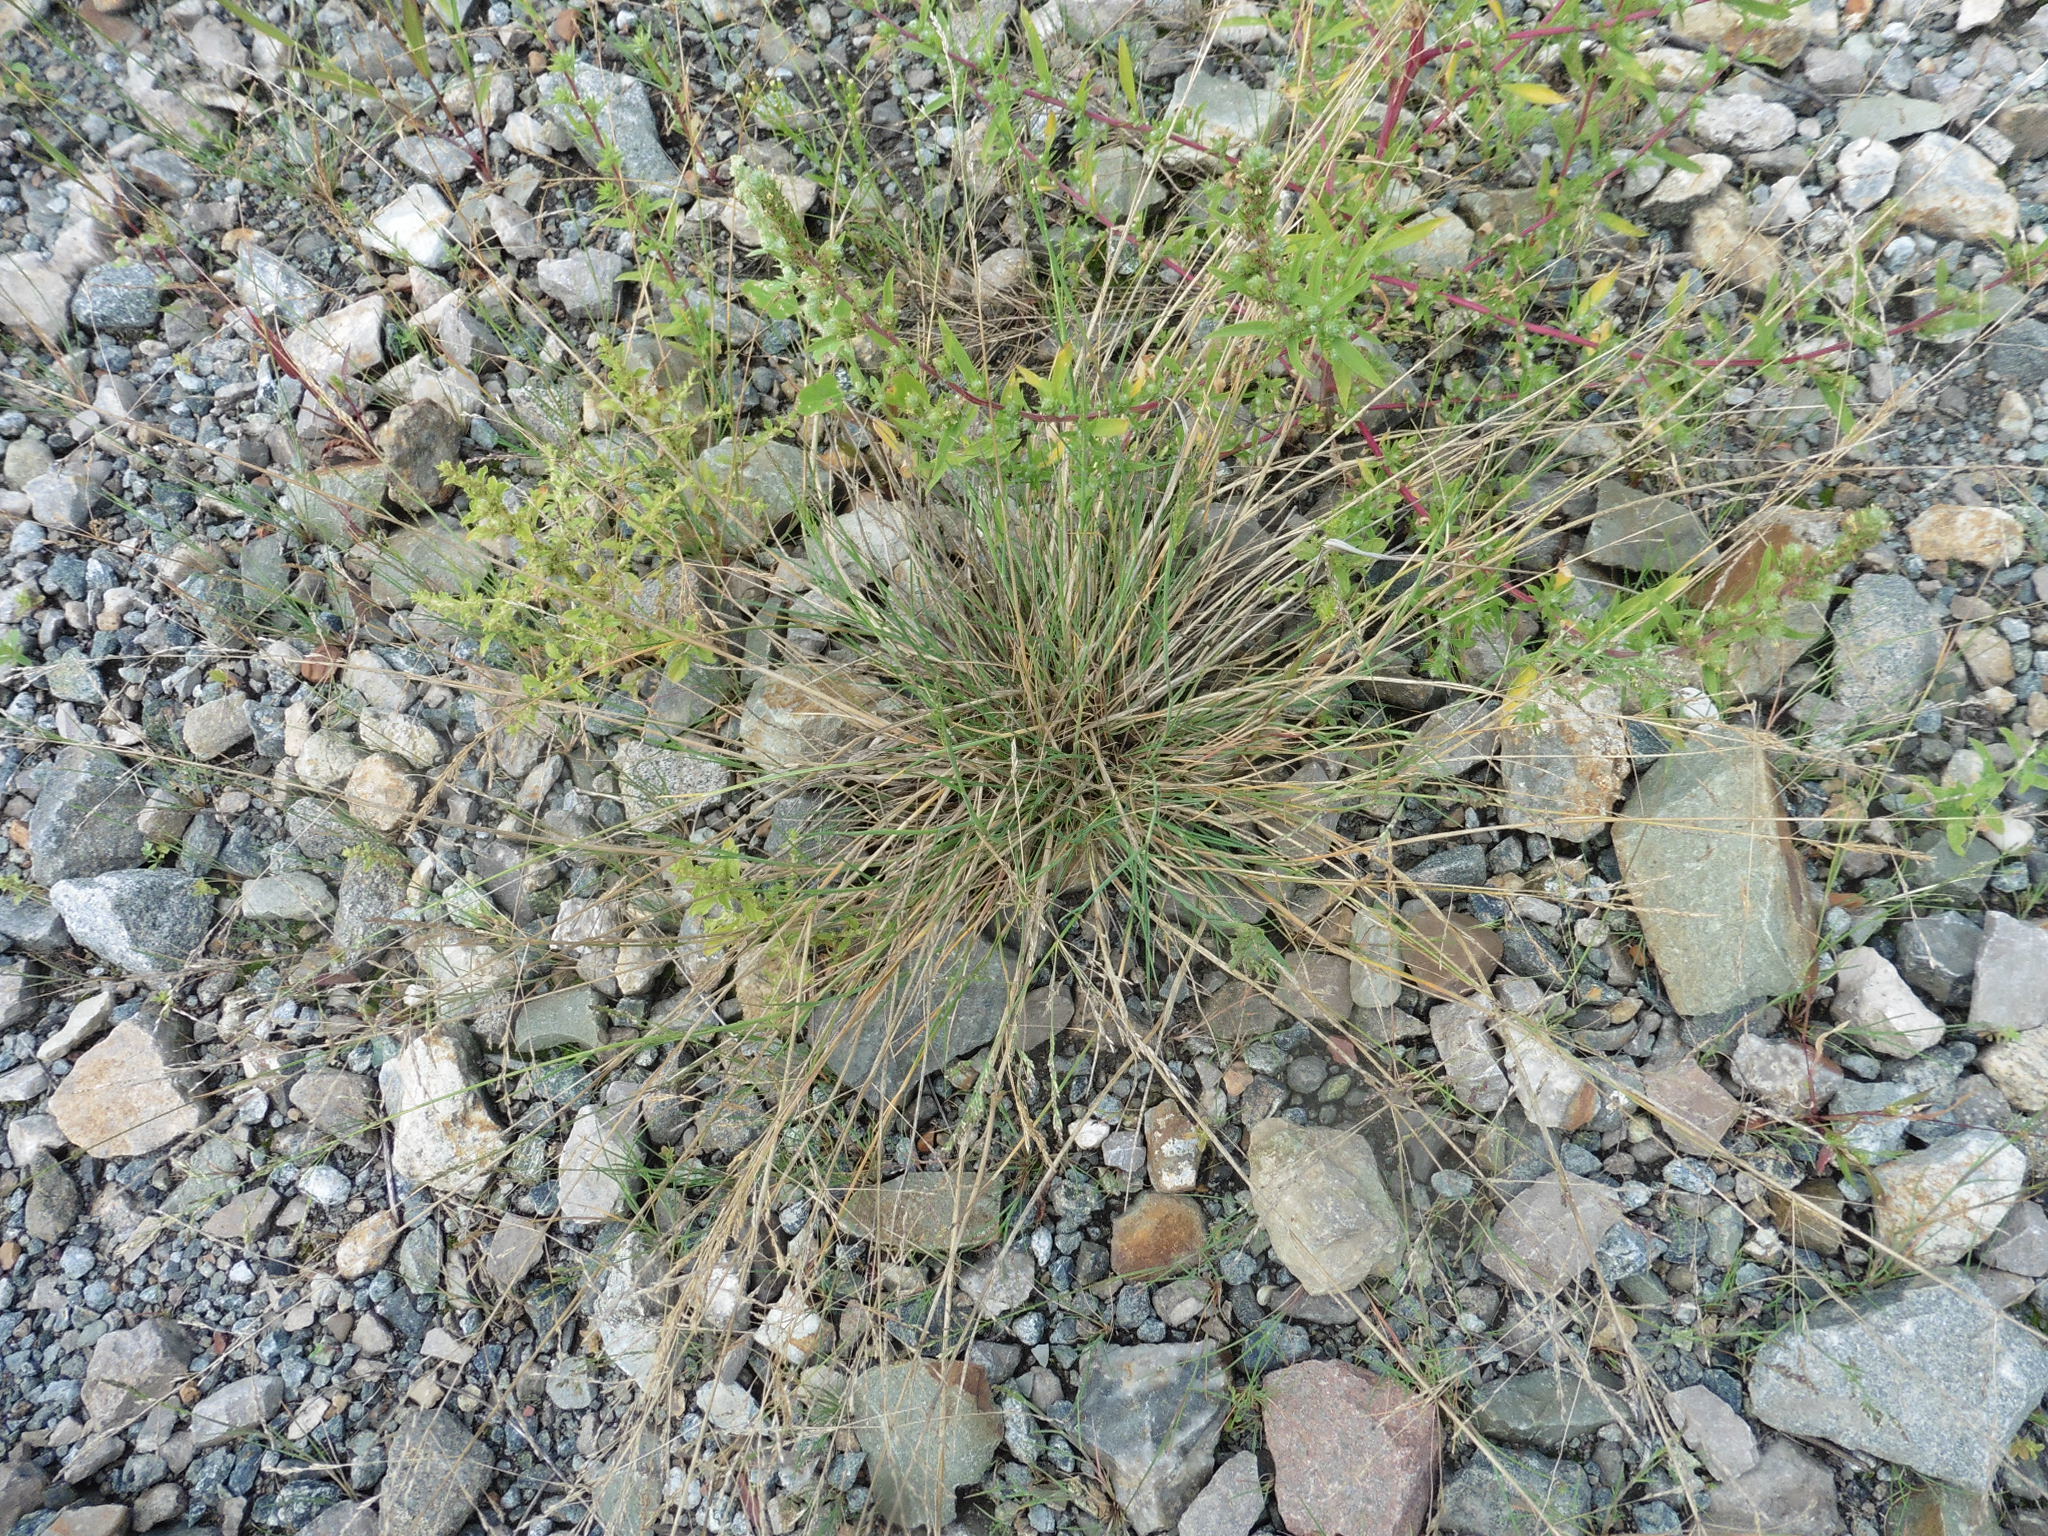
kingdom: Plantae
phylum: Tracheophyta
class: Liliopsida
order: Poales
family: Poaceae
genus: Puccinellia
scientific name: Puccinellia distans
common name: Weeping alkaligrass
